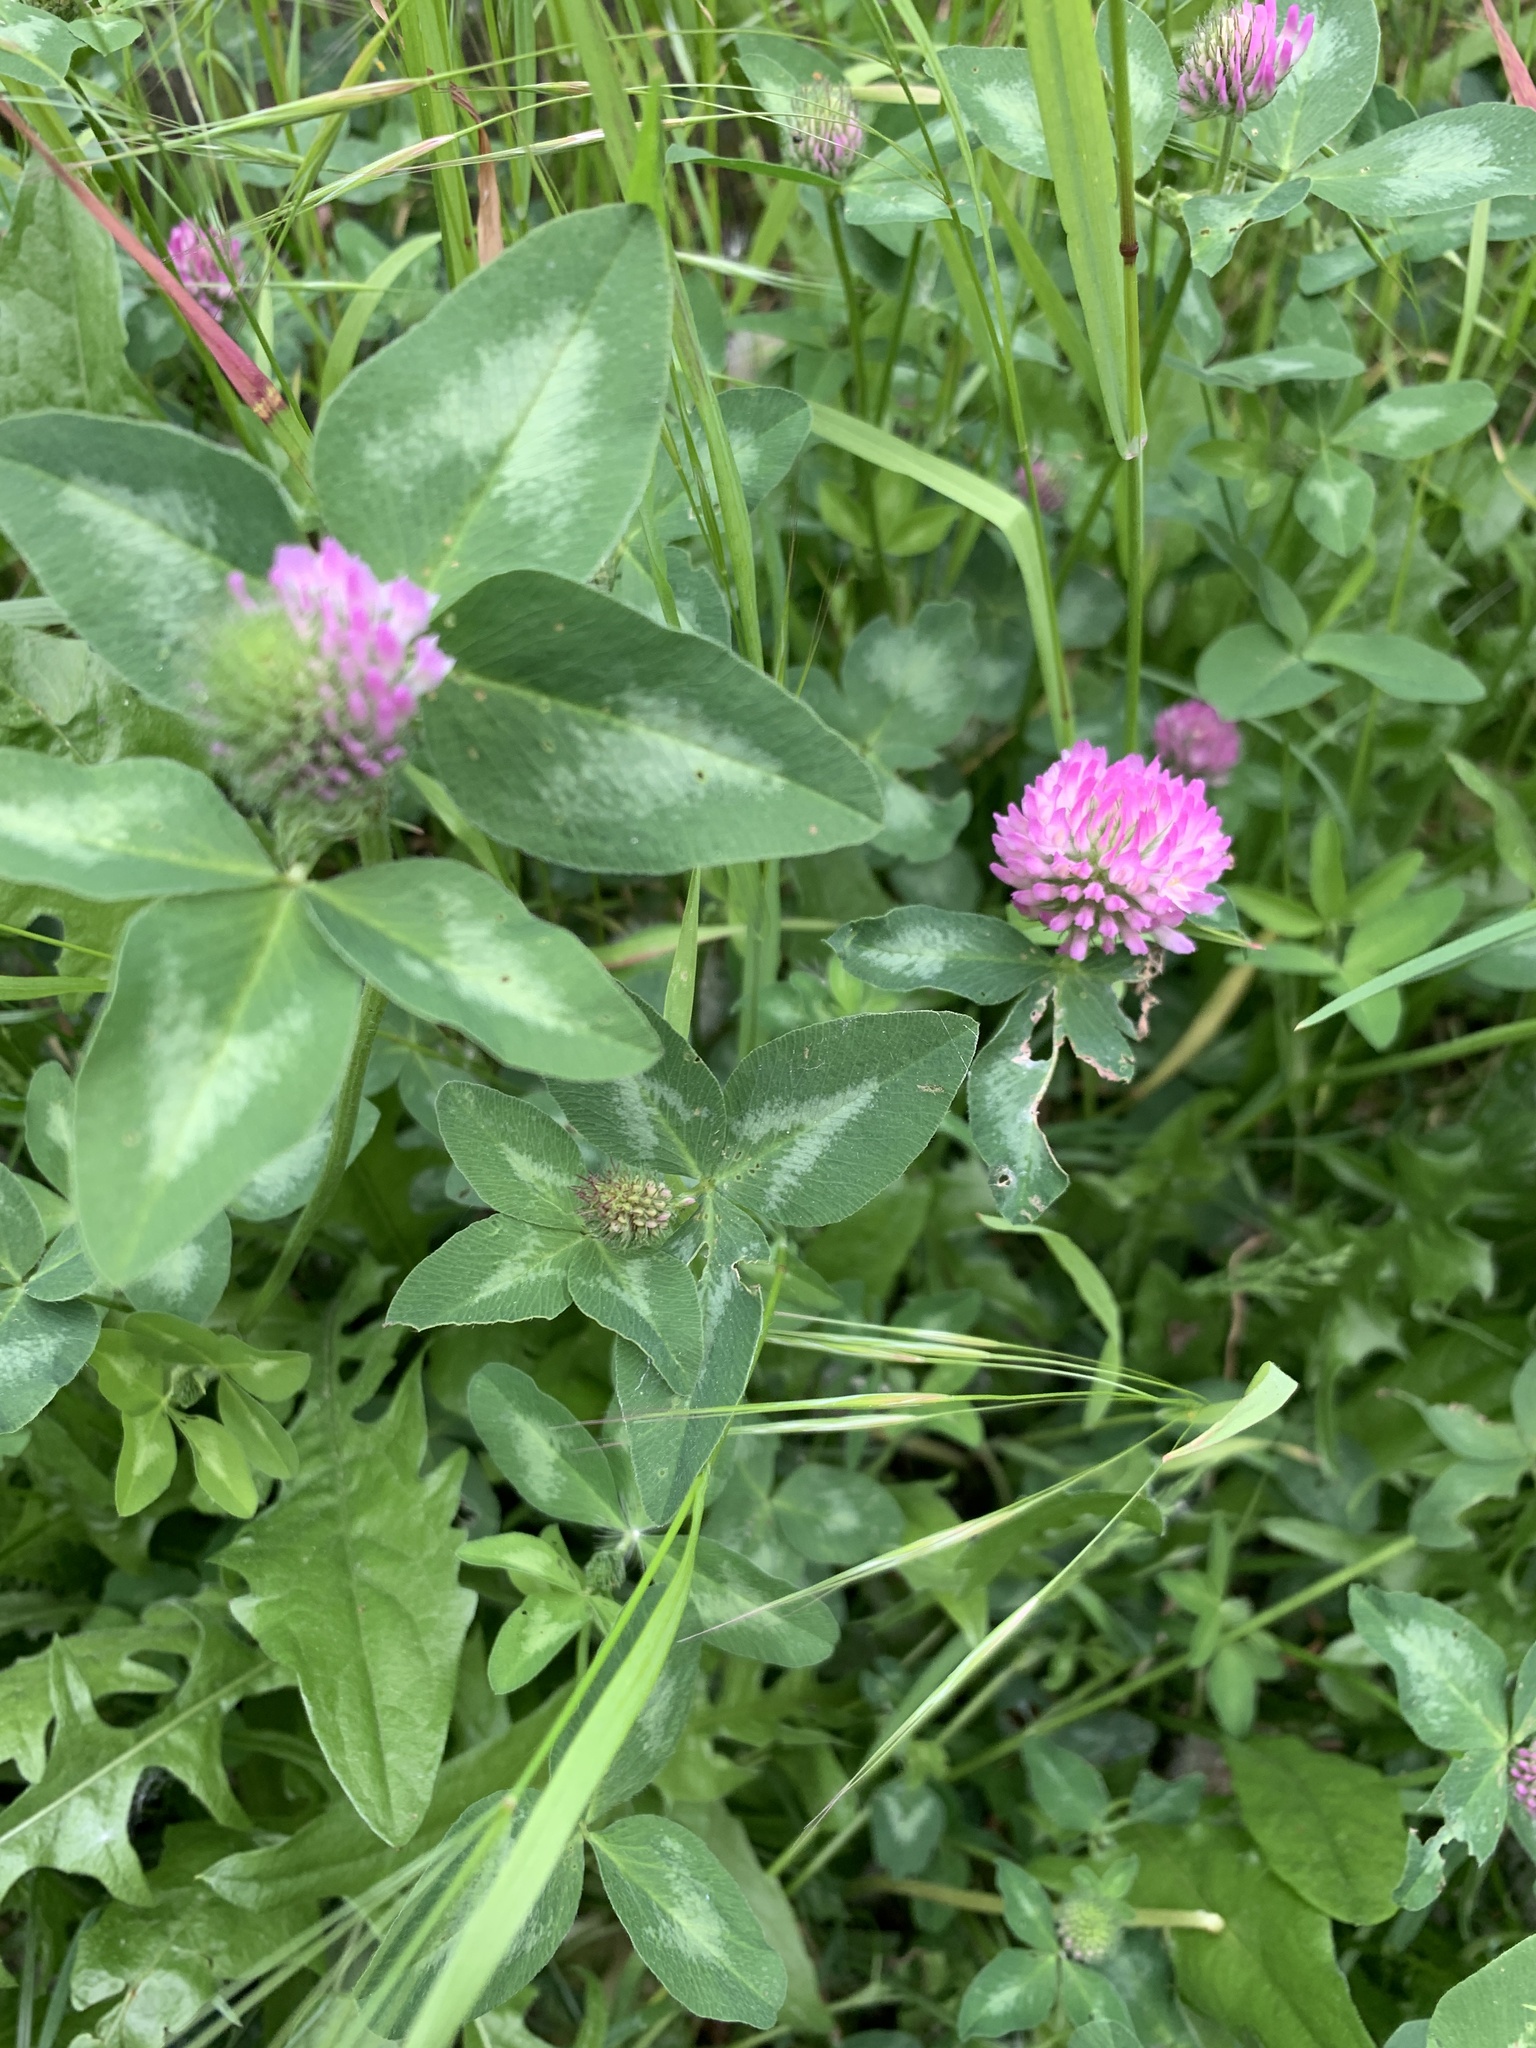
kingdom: Plantae
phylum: Tracheophyta
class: Magnoliopsida
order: Fabales
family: Fabaceae
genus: Trifolium
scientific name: Trifolium pratense
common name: Red clover
